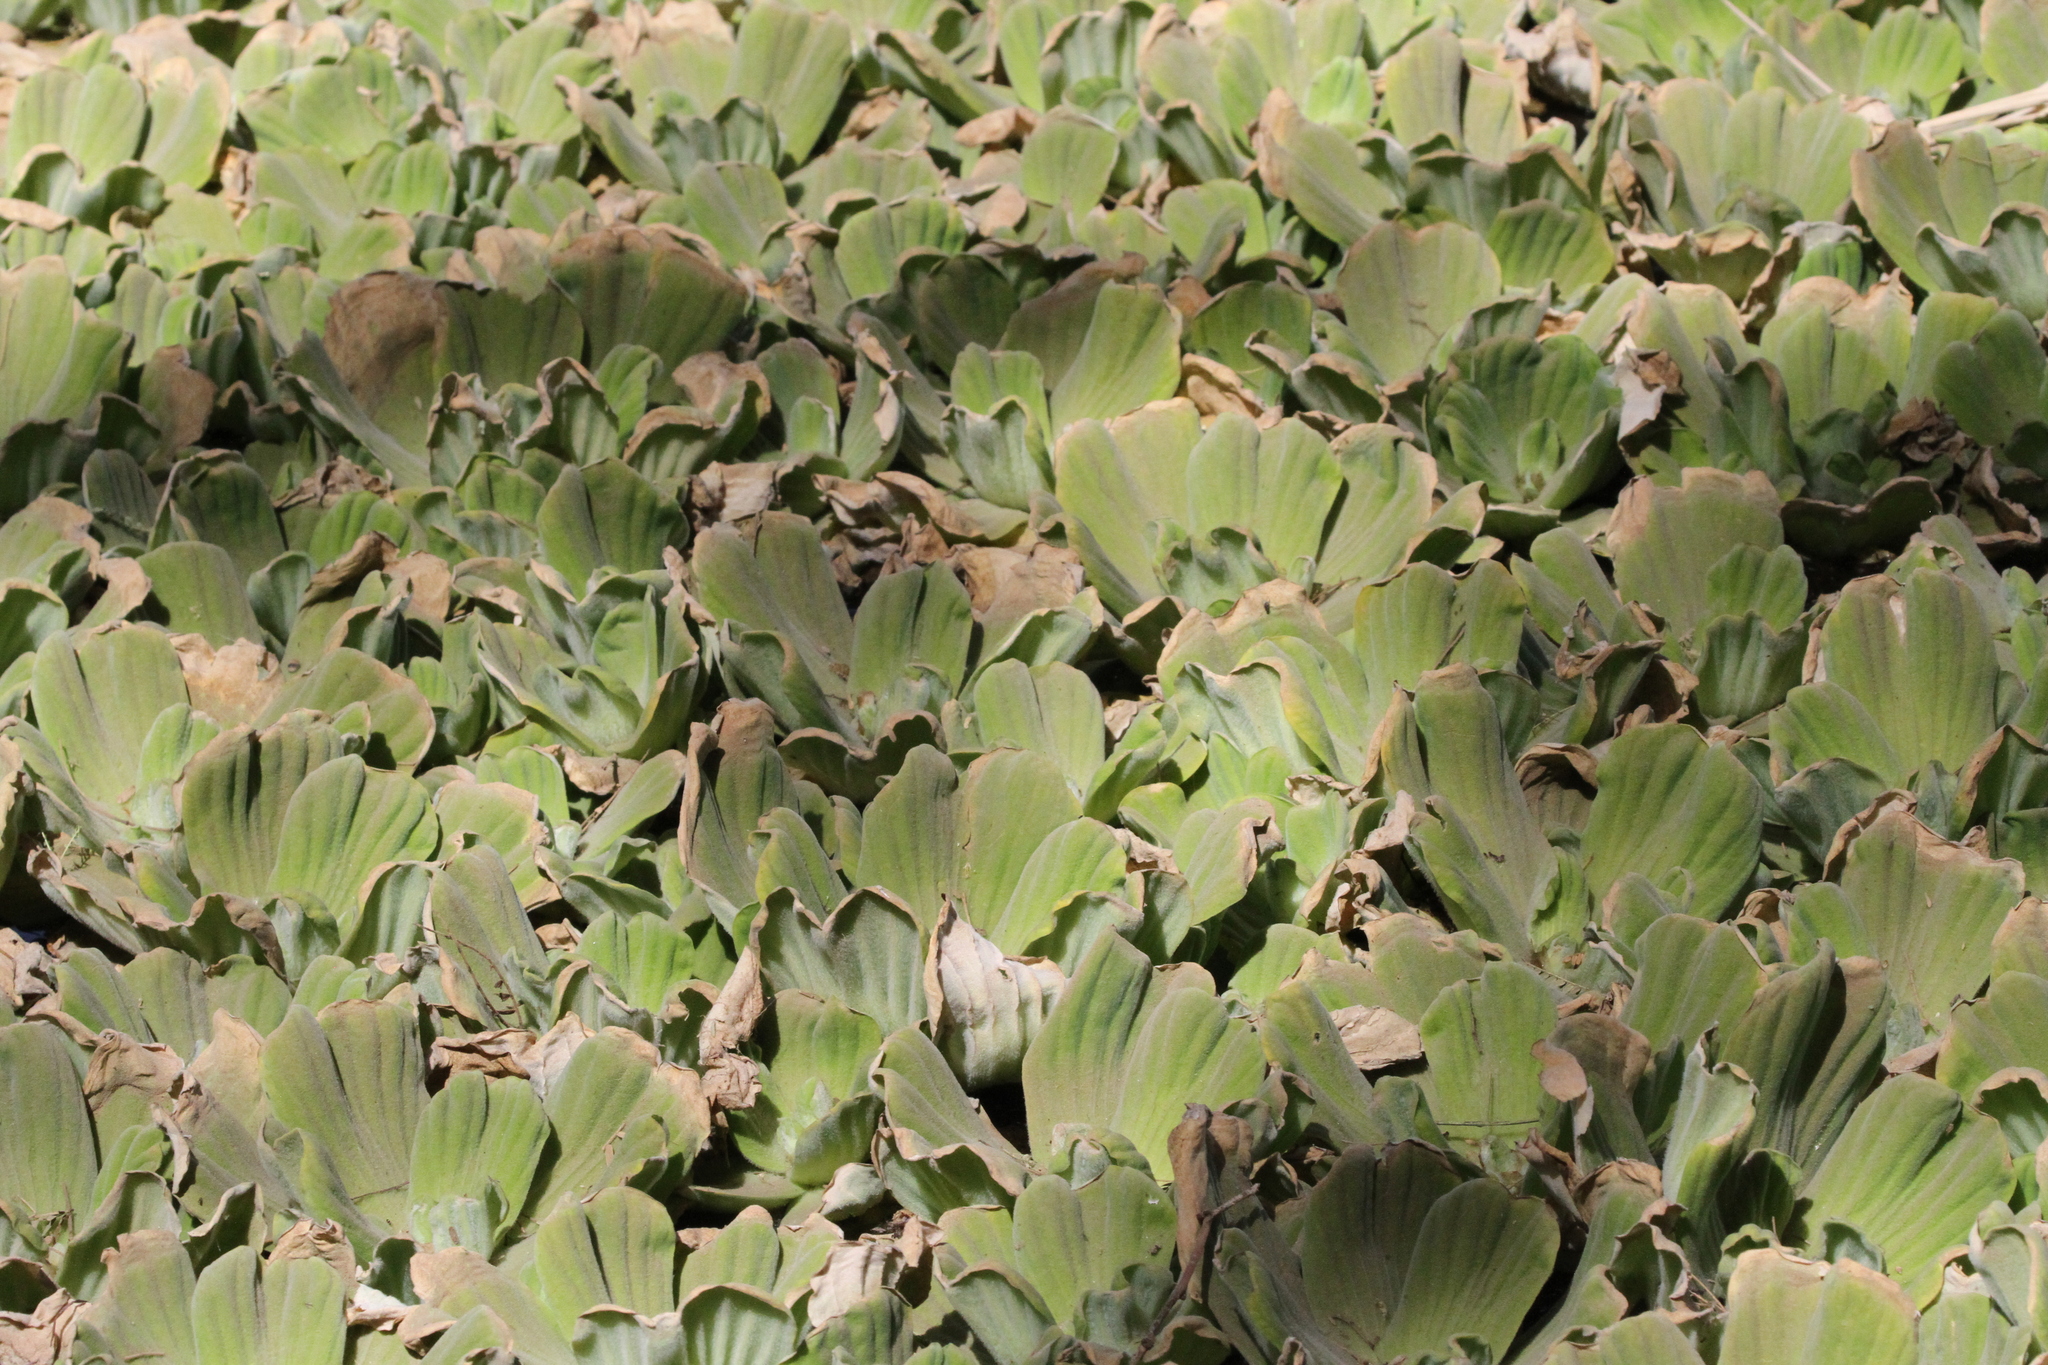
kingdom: Plantae
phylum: Tracheophyta
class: Liliopsida
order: Alismatales
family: Araceae
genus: Pistia
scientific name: Pistia stratiotes
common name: Water lettuce
